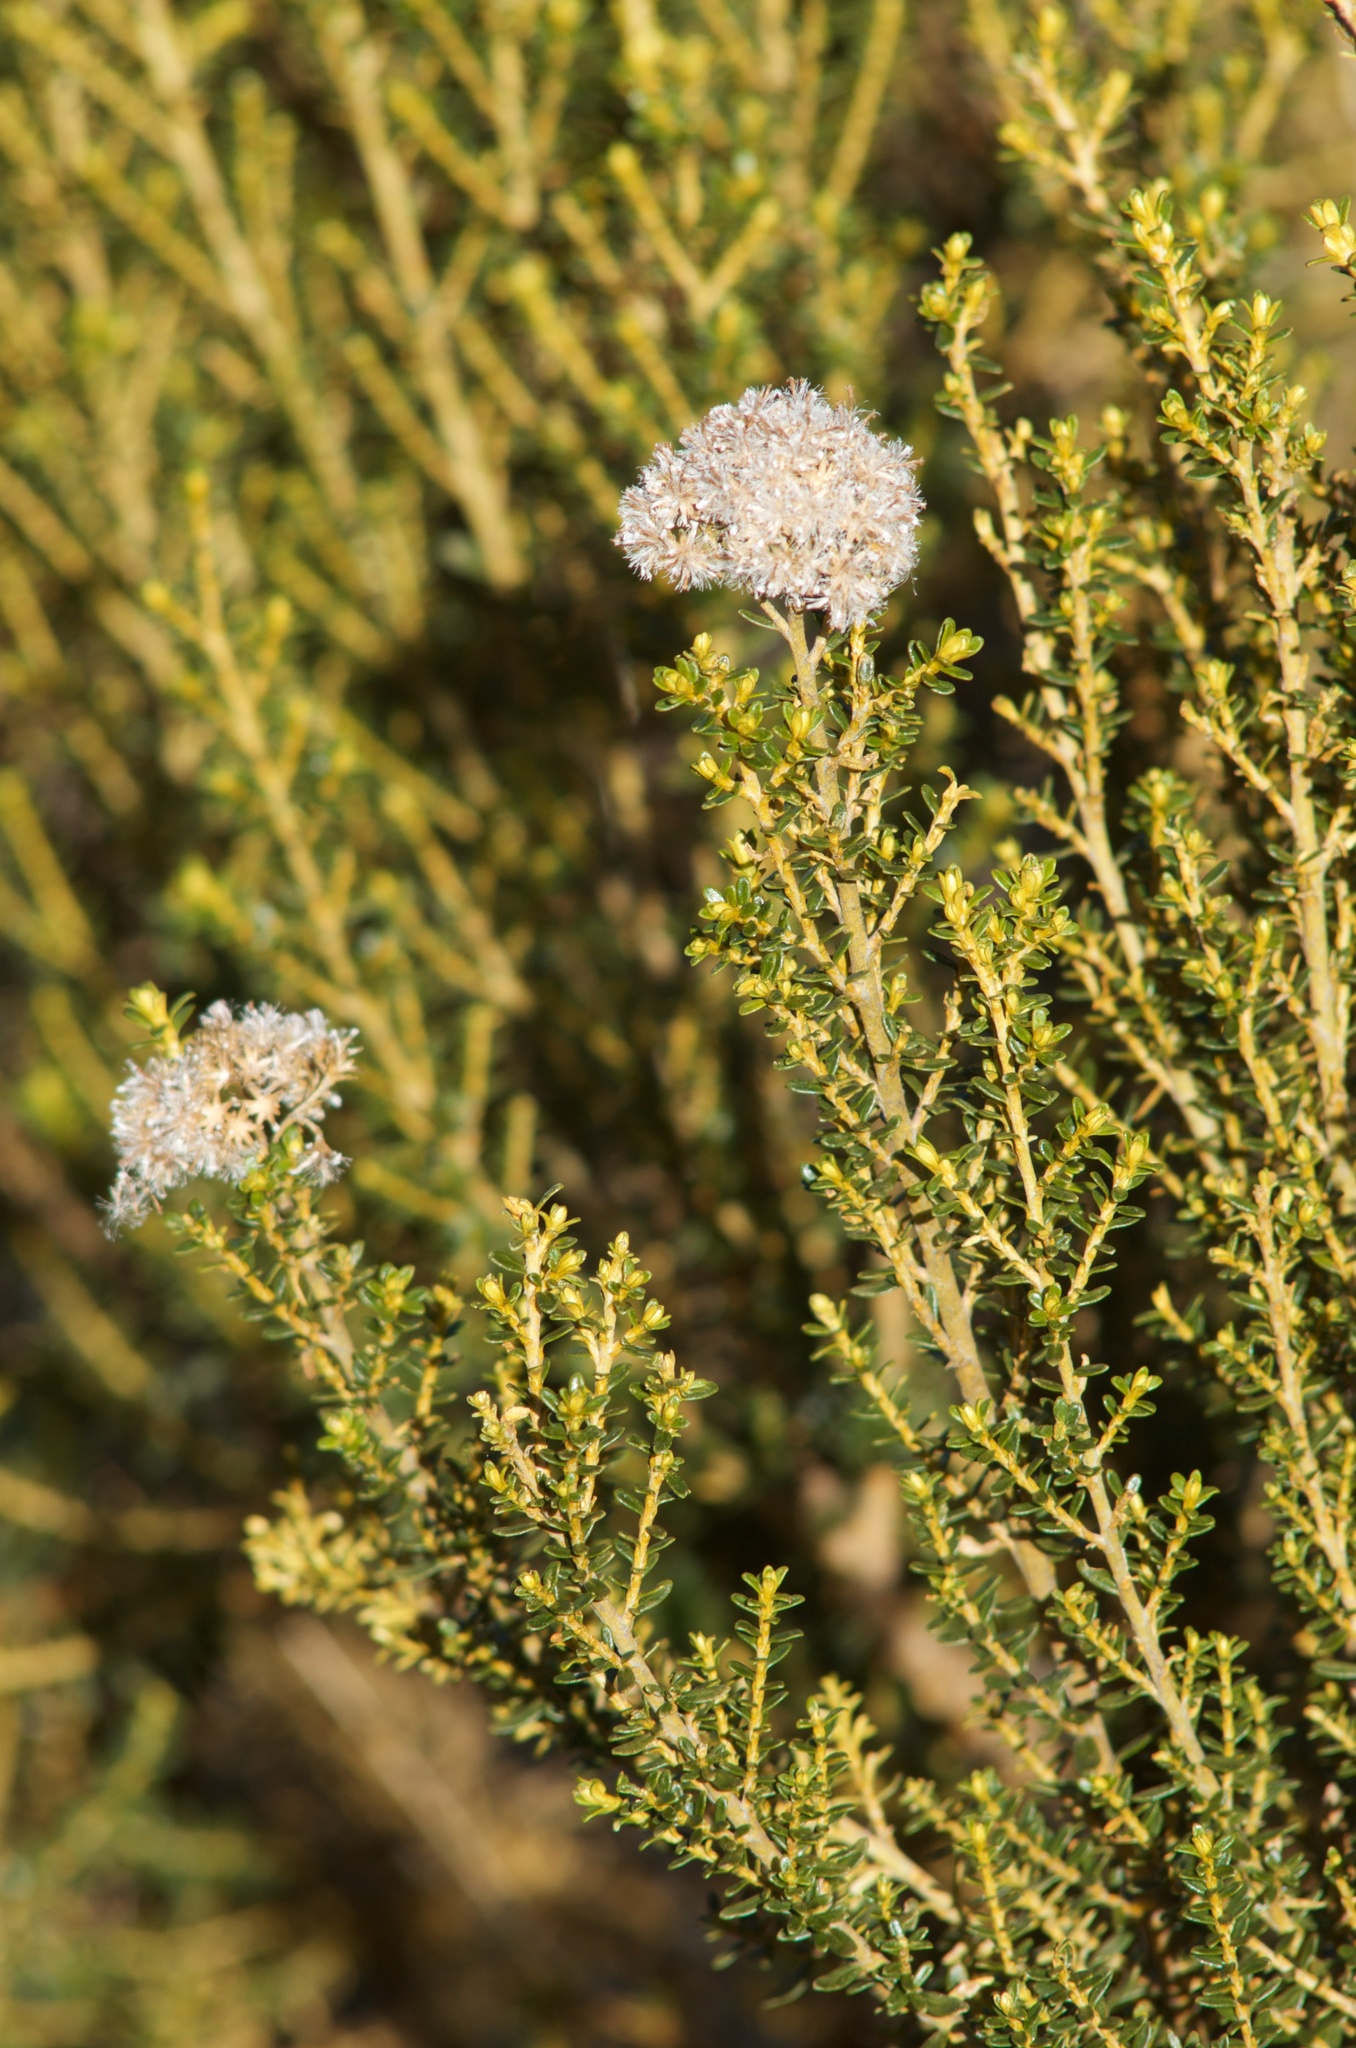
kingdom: Plantae
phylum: Tracheophyta
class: Magnoliopsida
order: Asterales
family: Asteraceae
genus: Ozothamnus
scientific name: Ozothamnus leptophyllus
